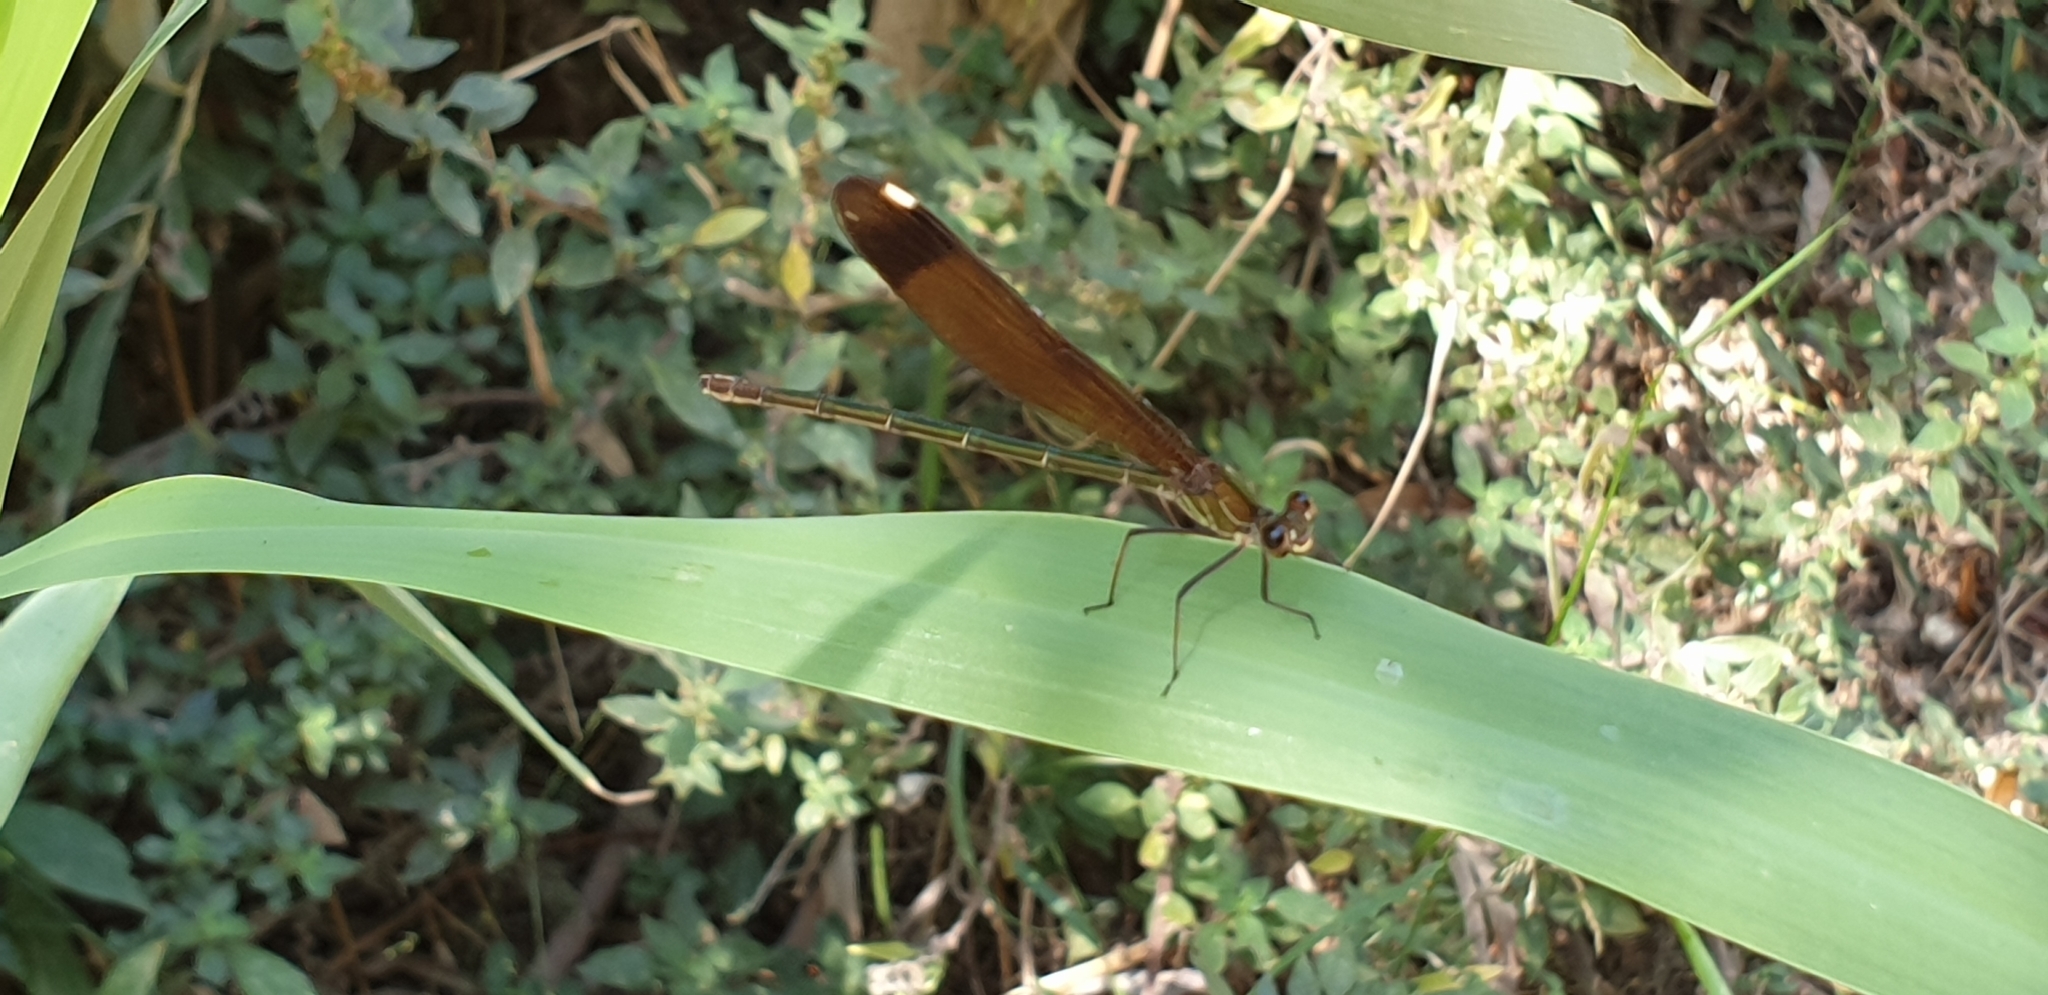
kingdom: Animalia
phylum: Arthropoda
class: Insecta
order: Odonata
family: Calopterygidae
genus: Calopteryx
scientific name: Calopteryx haemorrhoidalis
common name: Copper demoiselle
